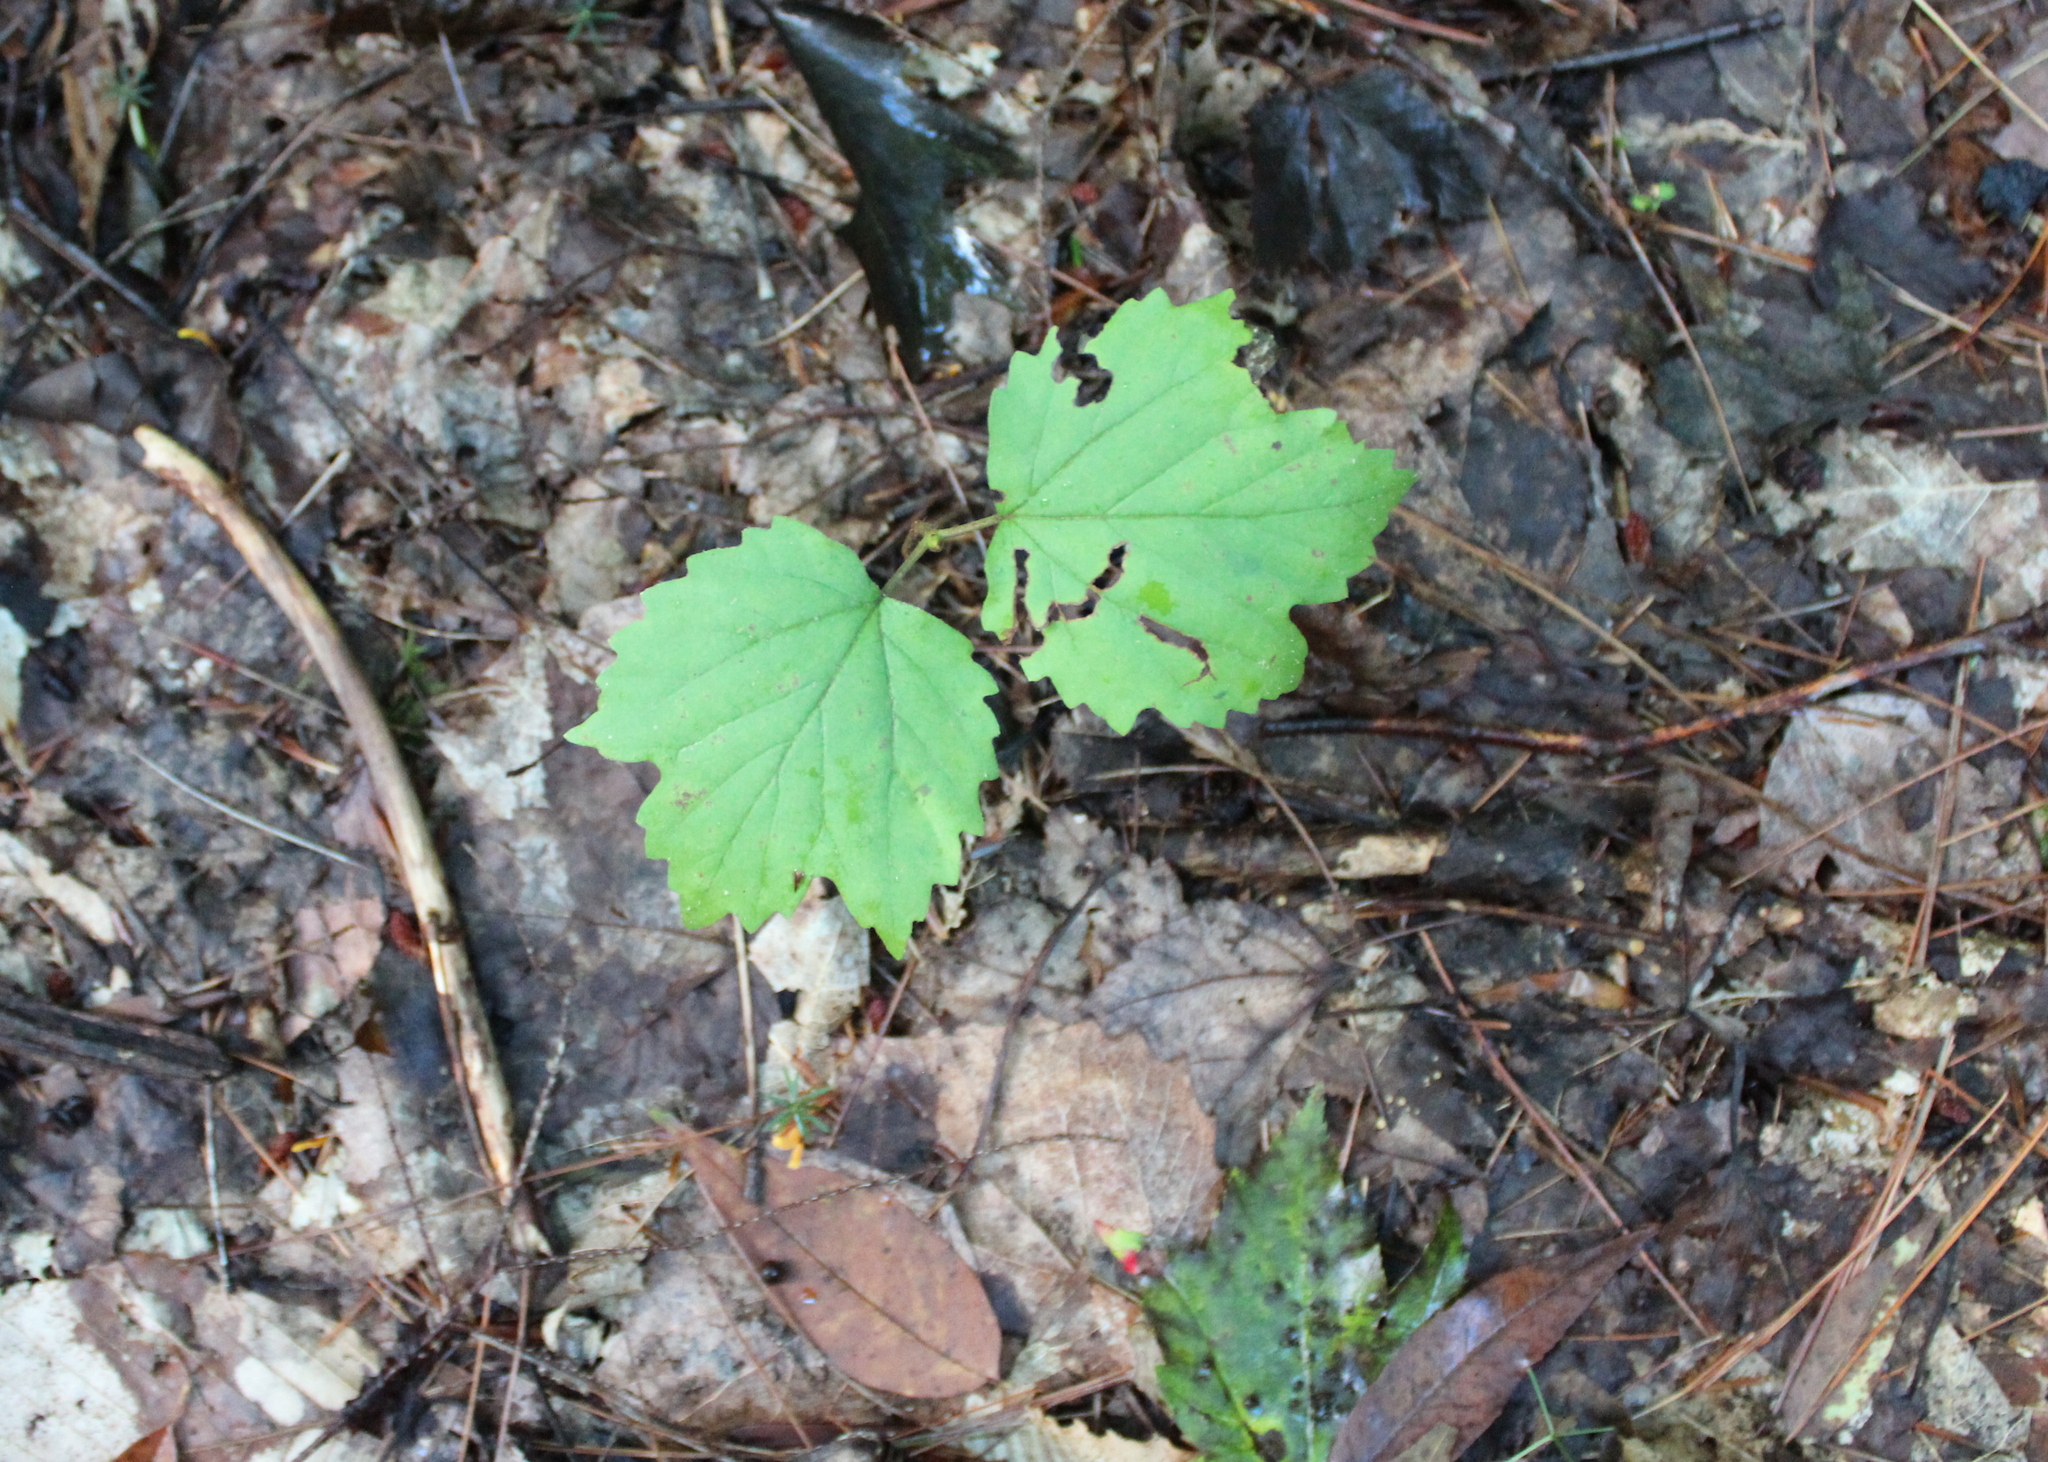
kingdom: Plantae
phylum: Tracheophyta
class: Magnoliopsida
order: Dipsacales
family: Viburnaceae
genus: Viburnum
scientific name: Viburnum acerifolium
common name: Dockmackie
